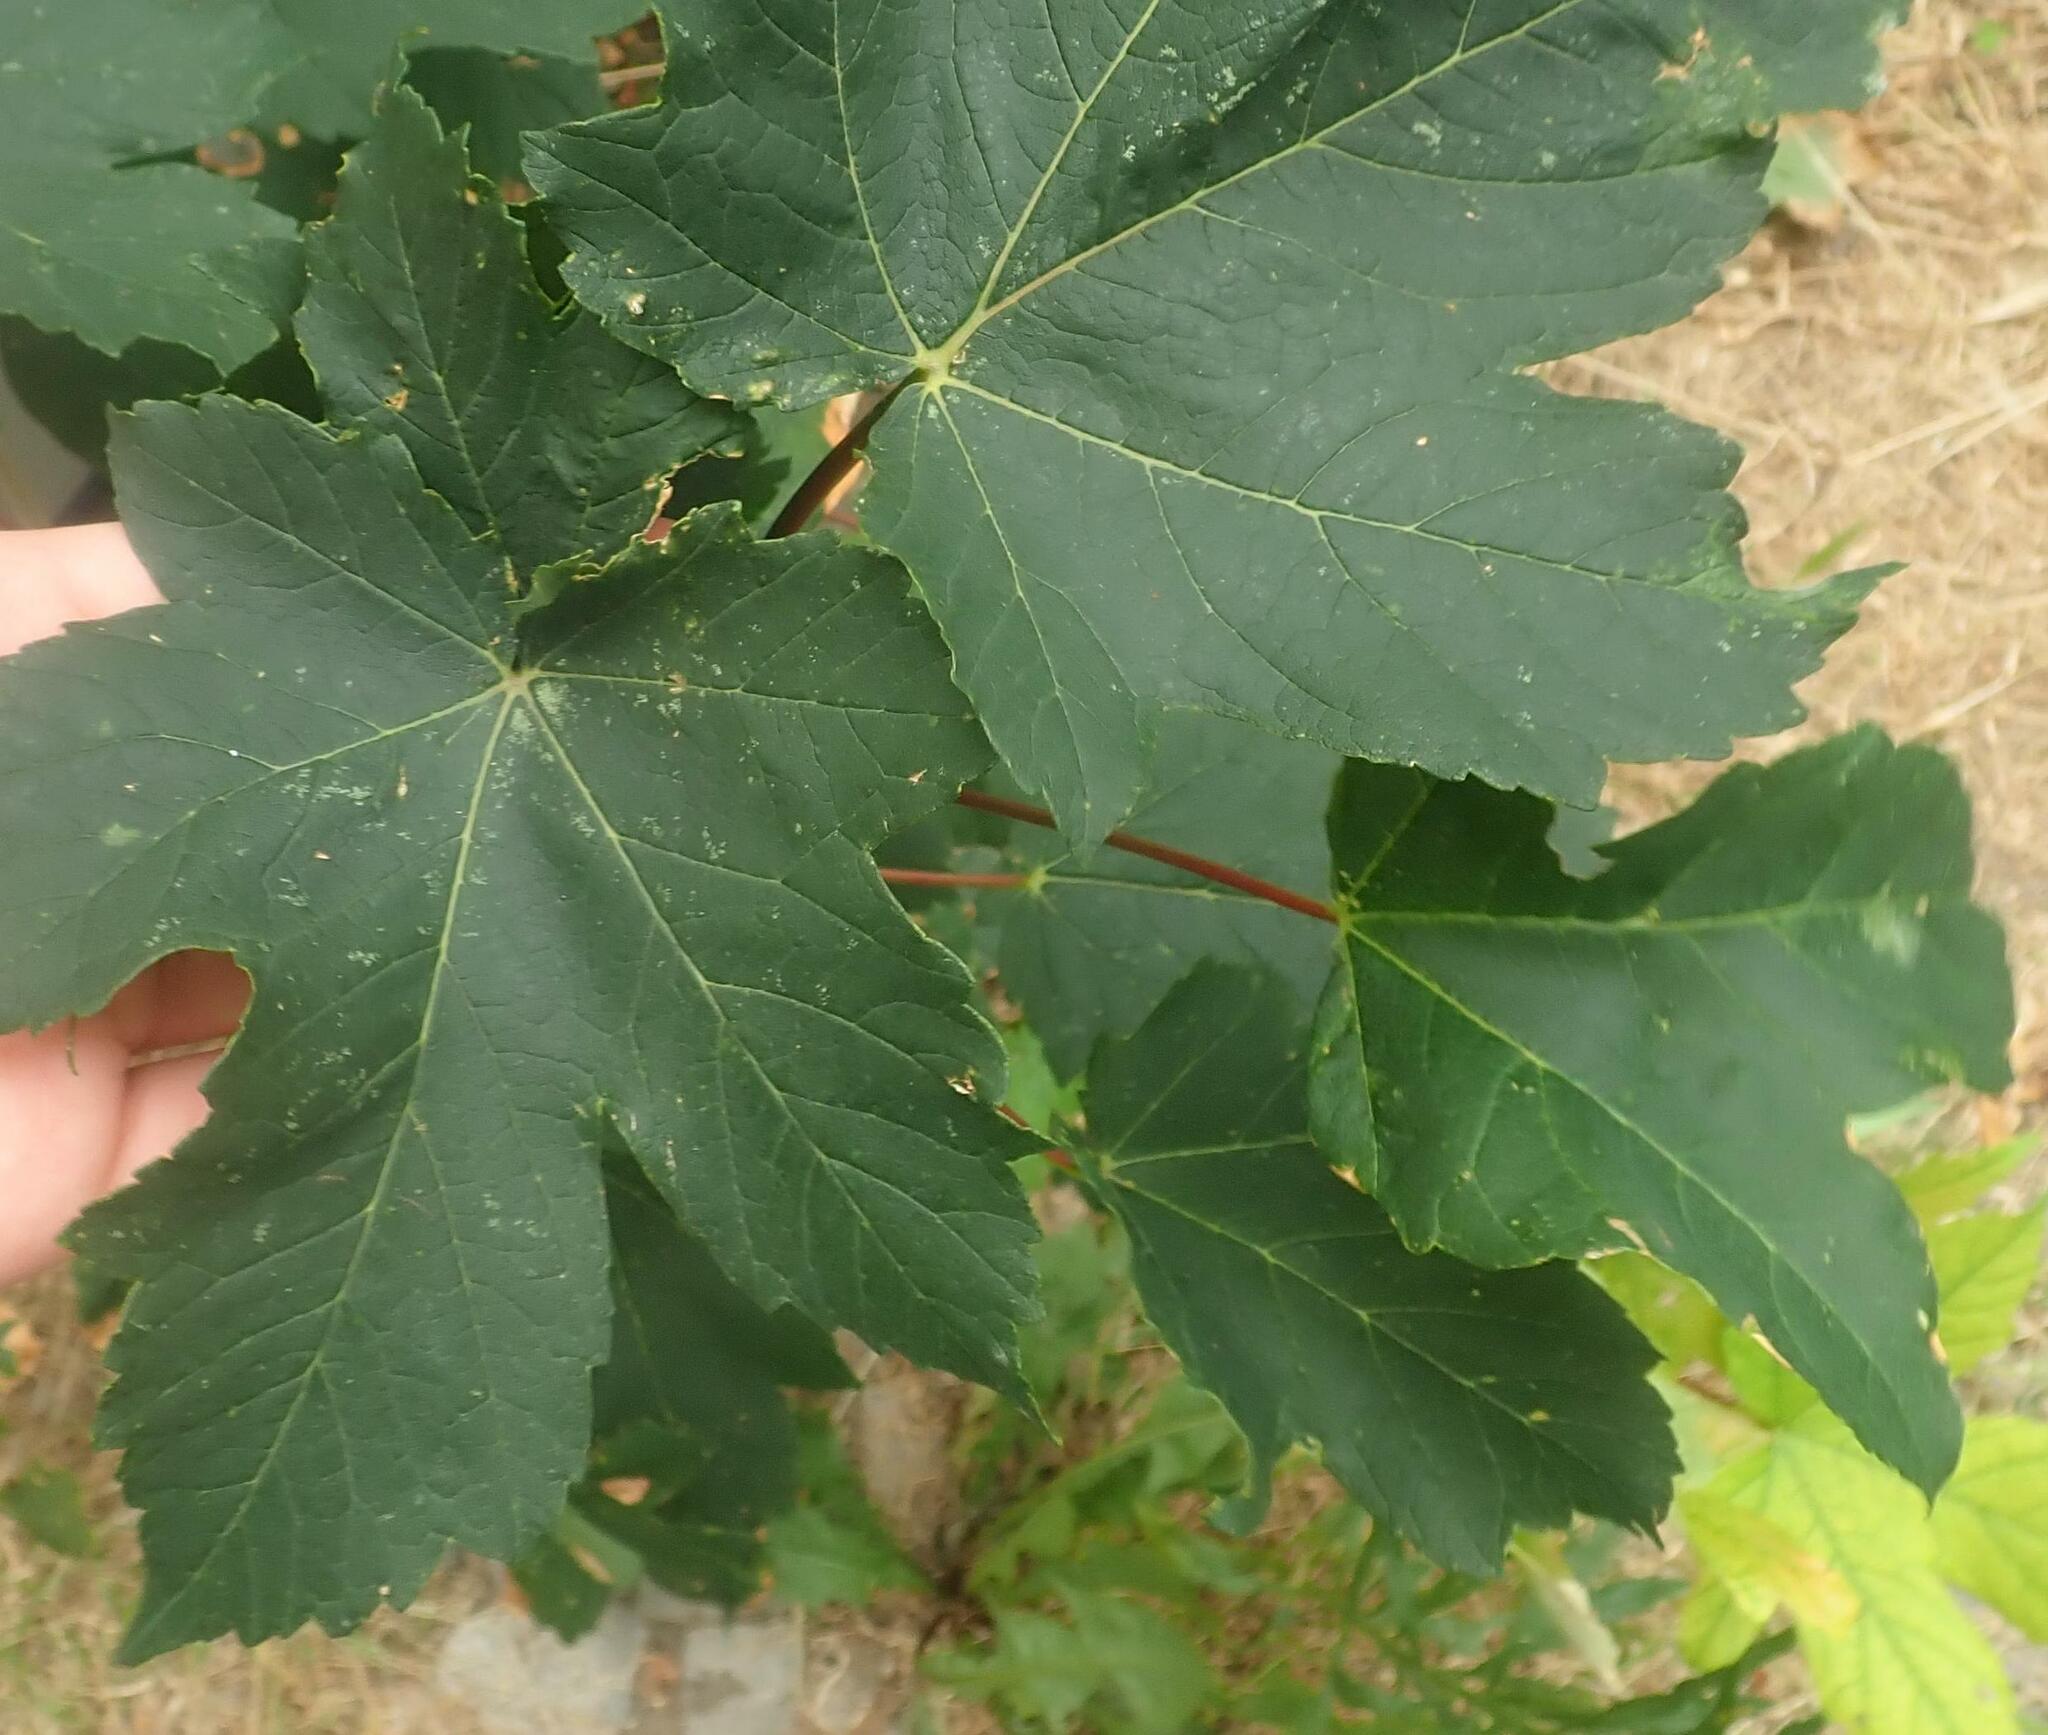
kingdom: Plantae
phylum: Tracheophyta
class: Magnoliopsida
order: Sapindales
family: Sapindaceae
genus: Acer
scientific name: Acer pseudoplatanus
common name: Sycamore
